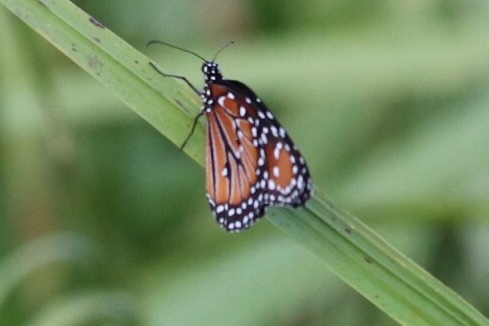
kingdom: Animalia
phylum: Arthropoda
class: Insecta
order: Lepidoptera
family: Nymphalidae
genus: Danaus
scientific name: Danaus gilippus
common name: Queen
